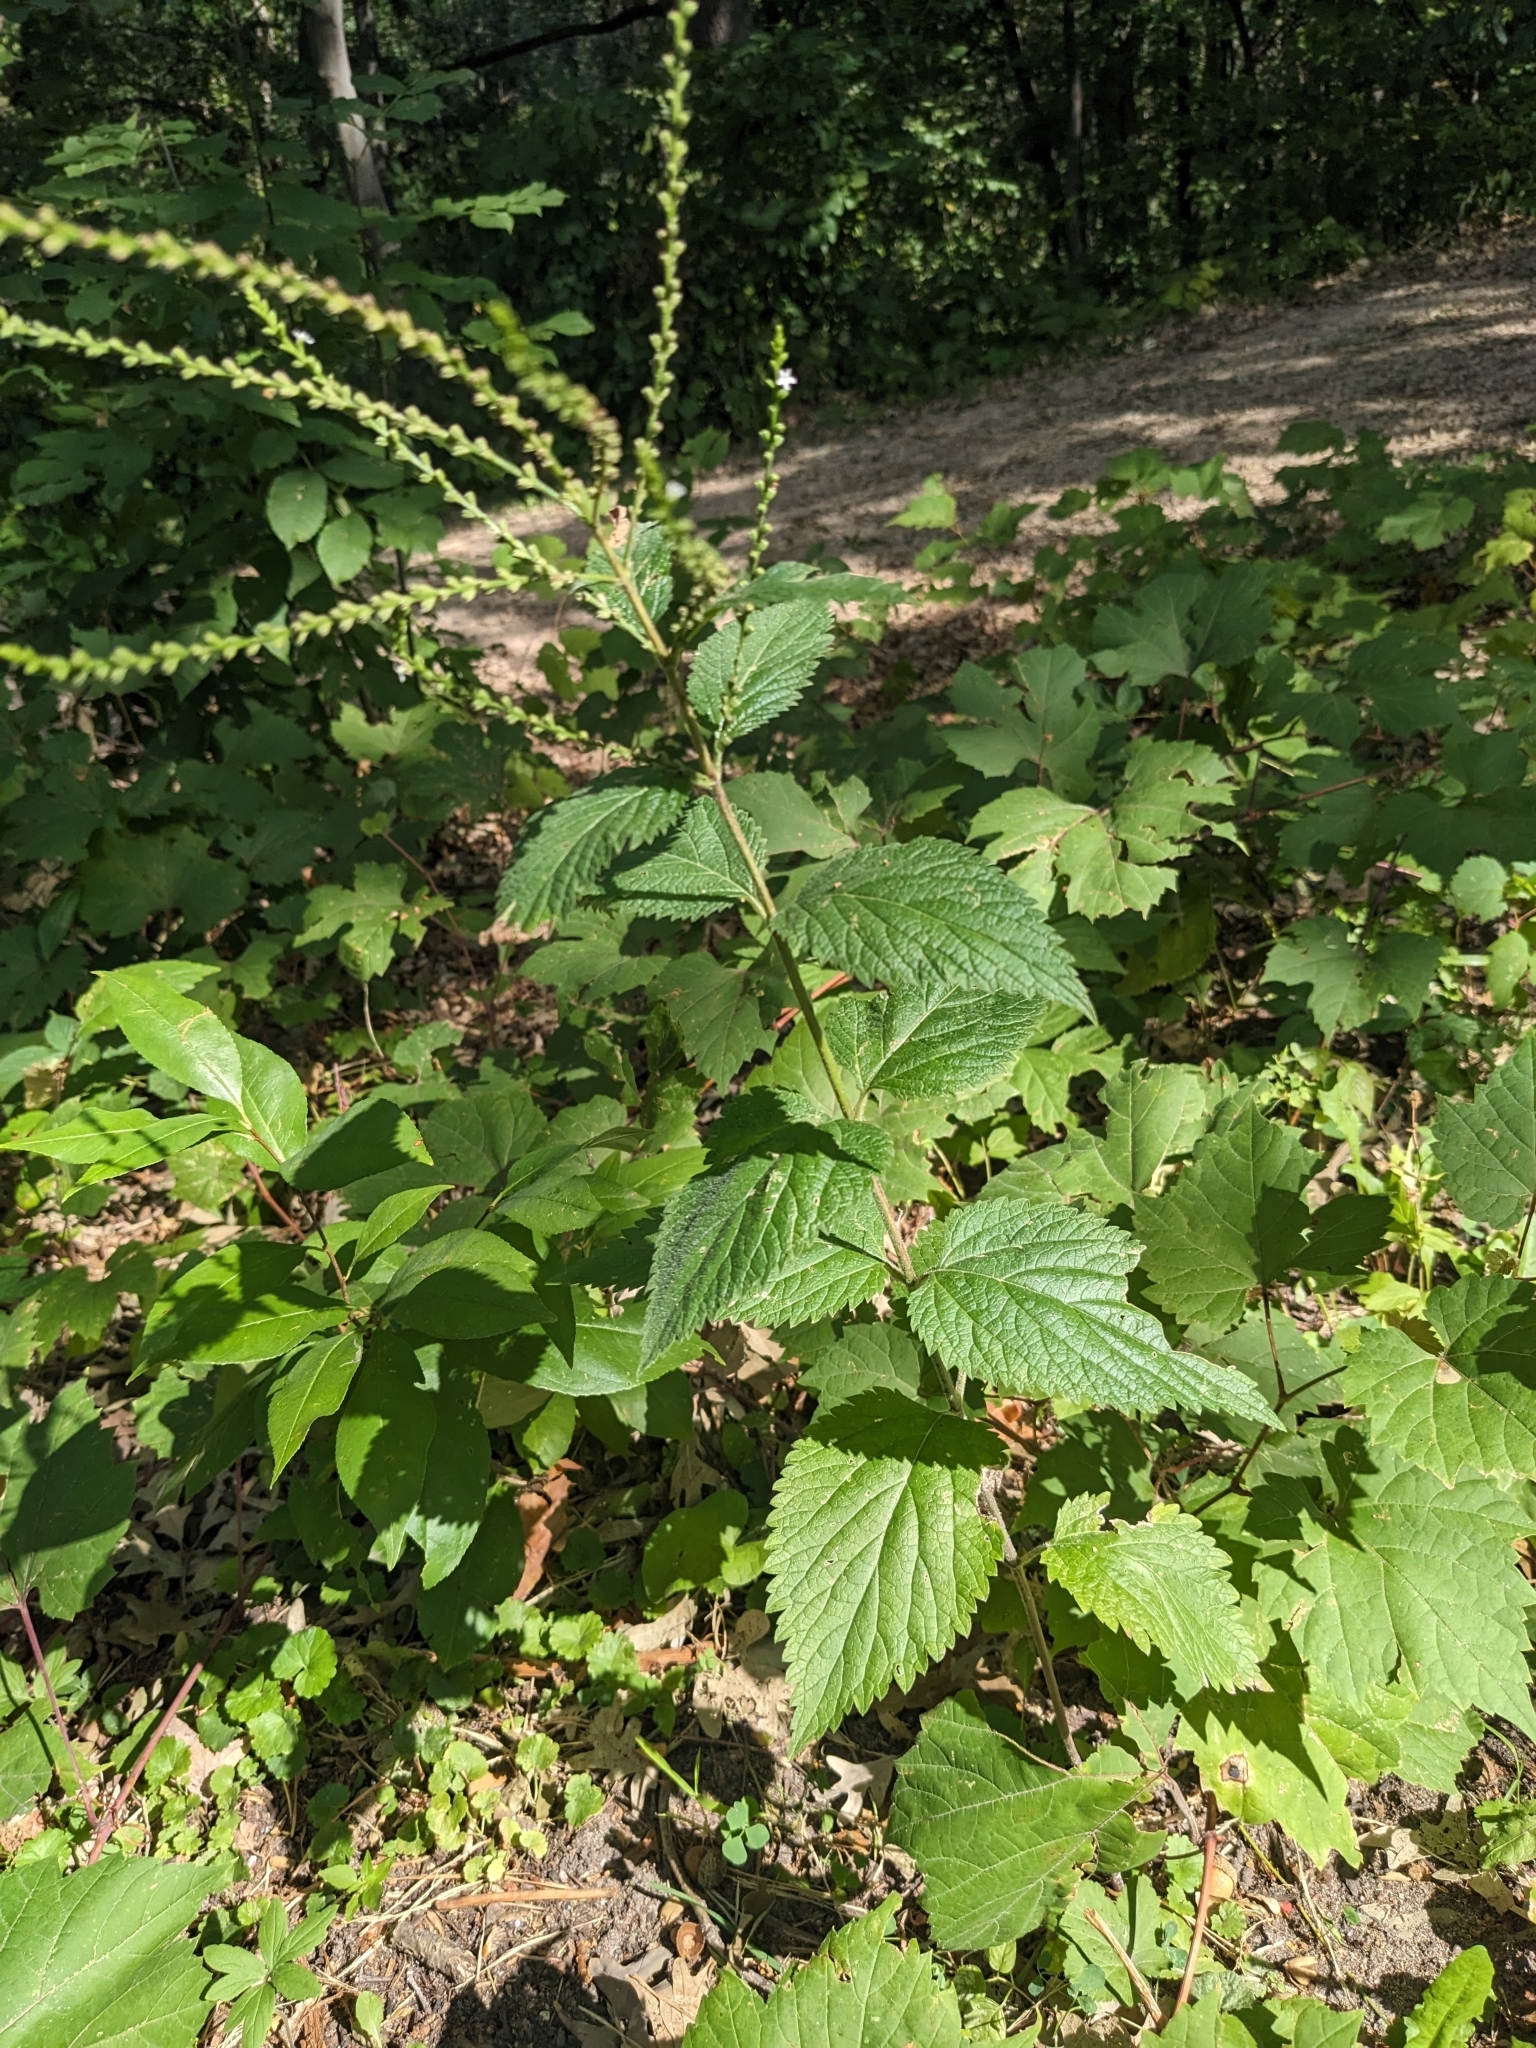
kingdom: Plantae
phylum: Tracheophyta
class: Magnoliopsida
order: Lamiales
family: Verbenaceae
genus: Verbena
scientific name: Verbena urticifolia
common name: Nettle-leaved vervain
